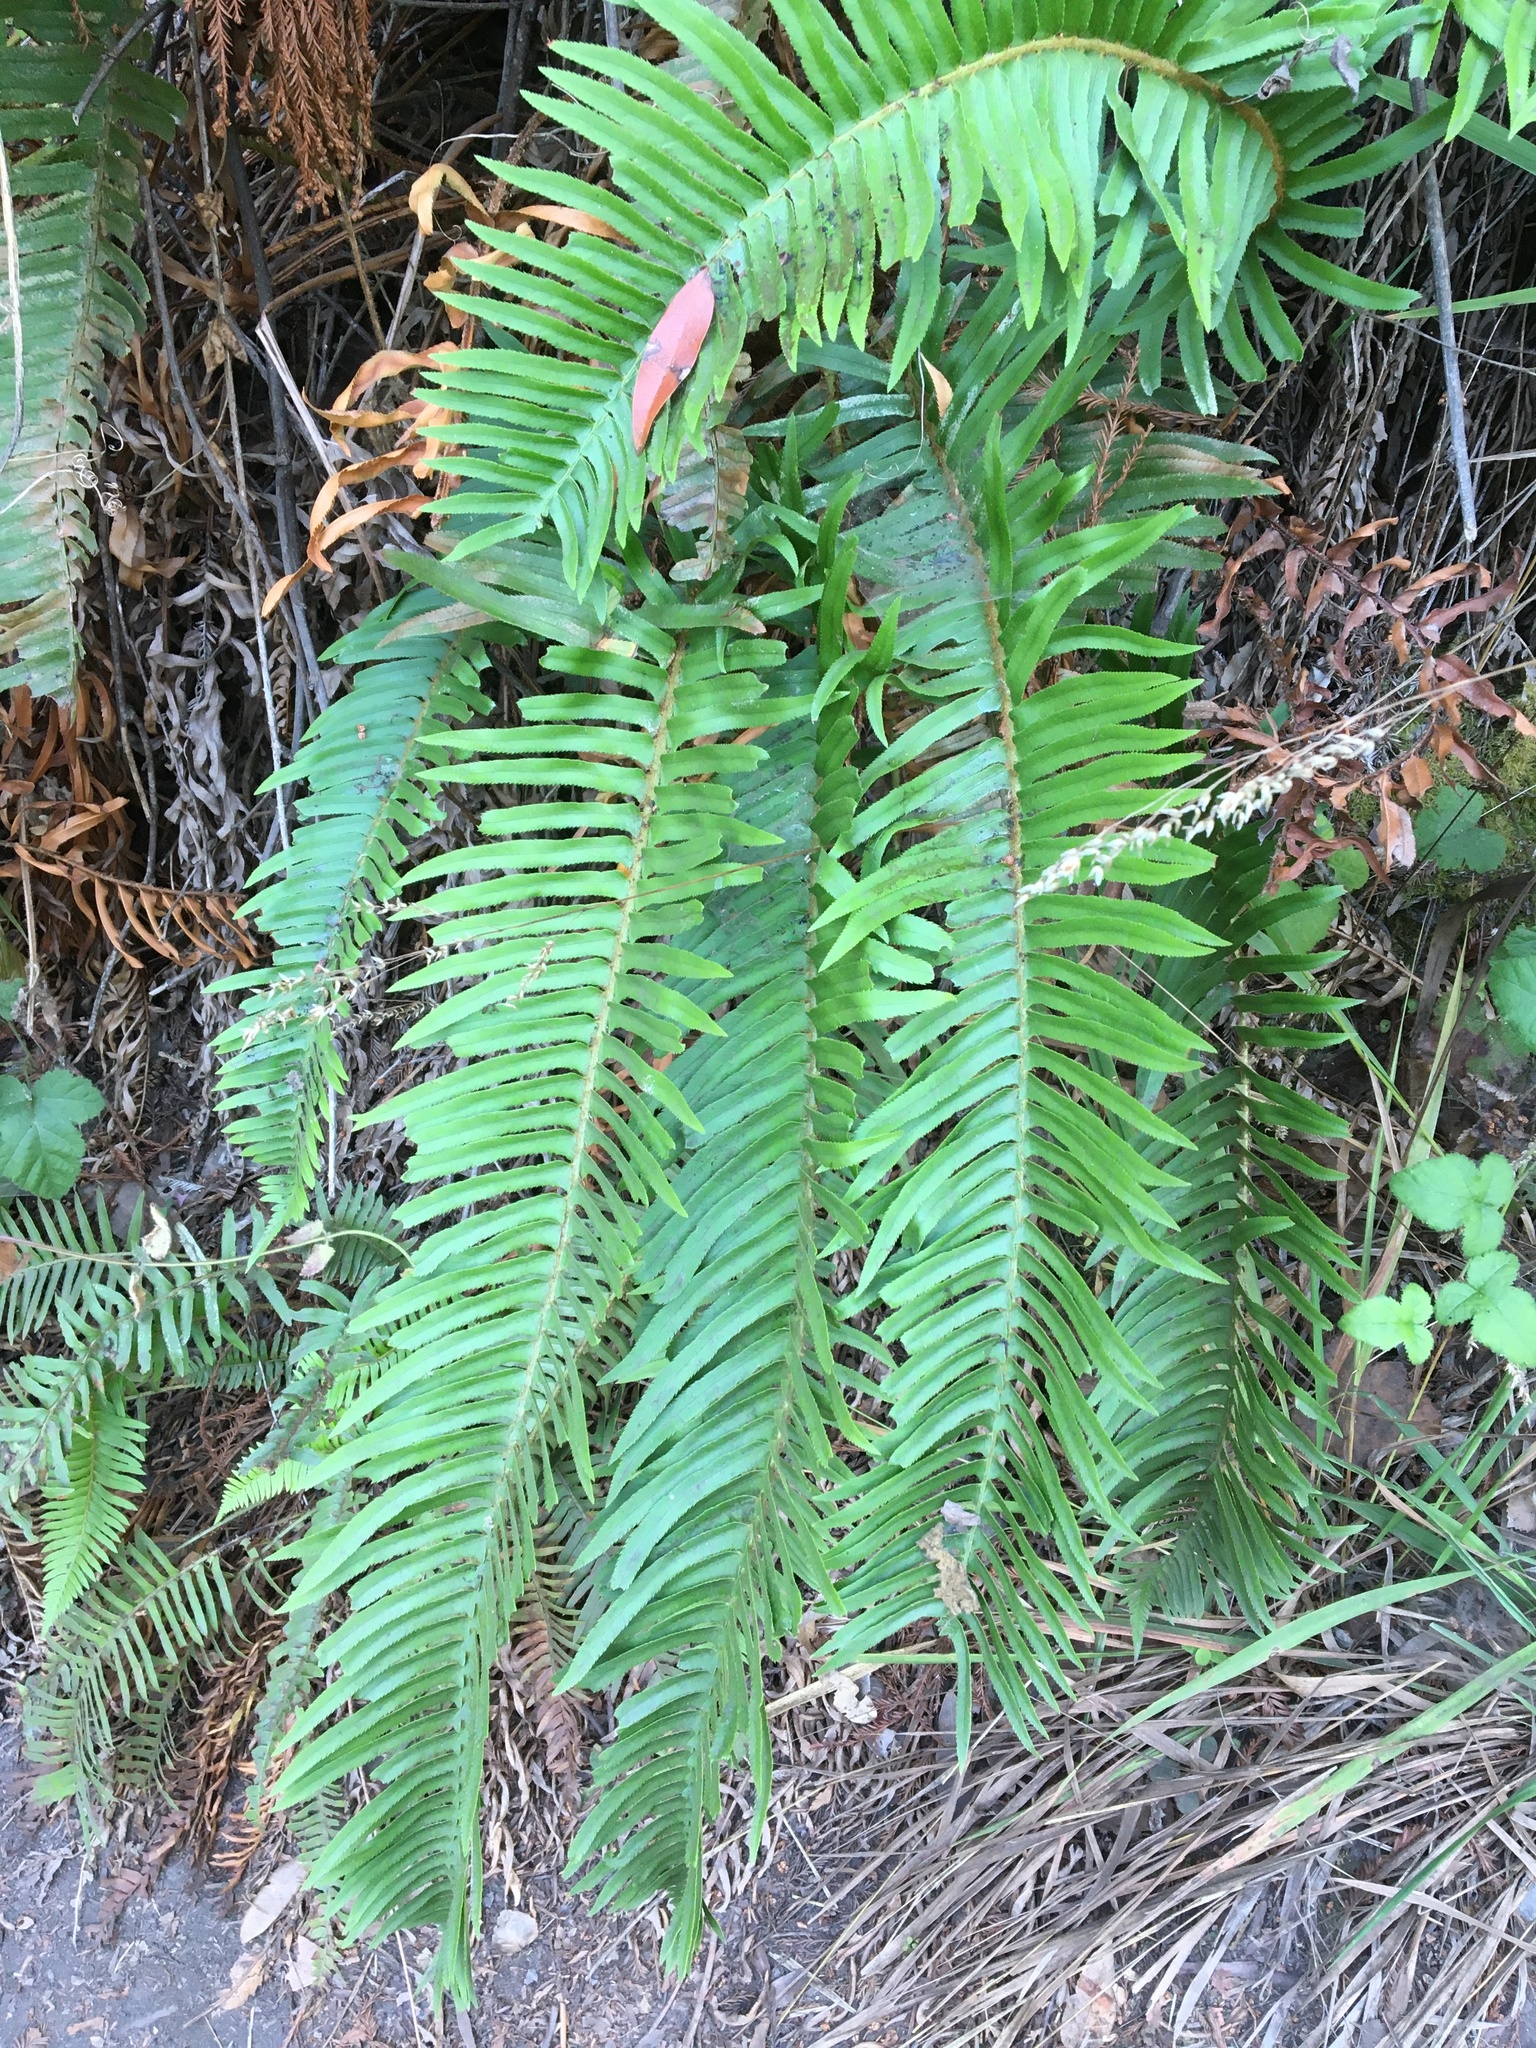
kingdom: Plantae
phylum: Tracheophyta
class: Polypodiopsida
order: Polypodiales
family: Dryopteridaceae
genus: Polystichum
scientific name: Polystichum munitum
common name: Western sword-fern
